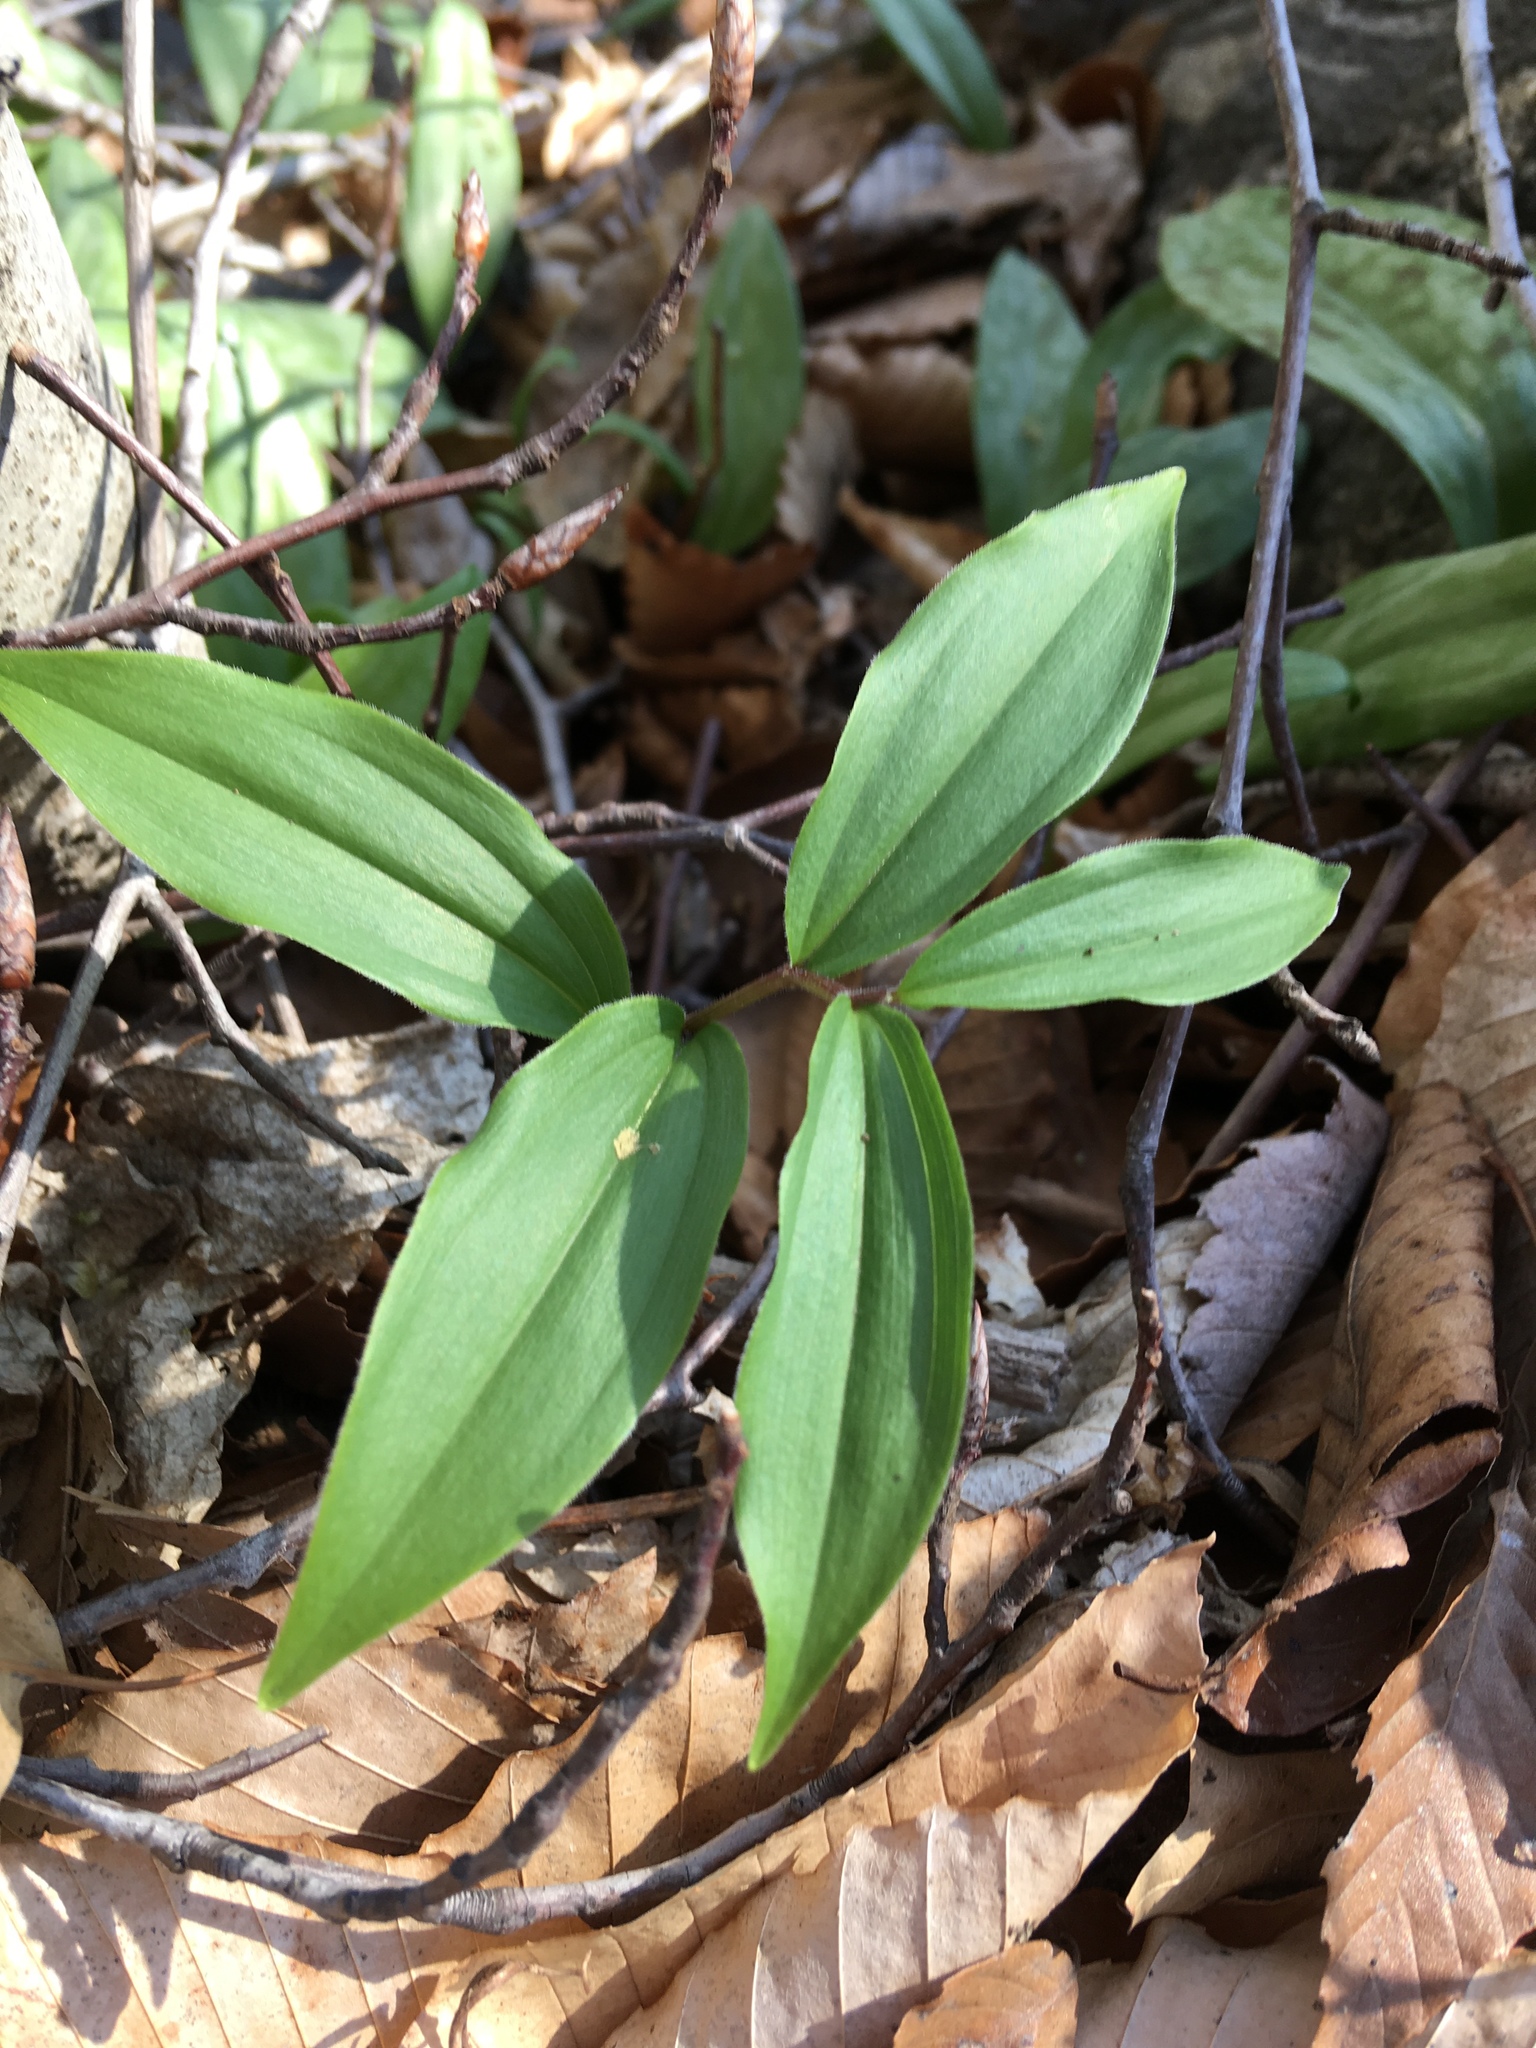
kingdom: Plantae
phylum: Tracheophyta
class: Liliopsida
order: Asparagales
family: Asparagaceae
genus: Maianthemum
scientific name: Maianthemum racemosum
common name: False spikenard
